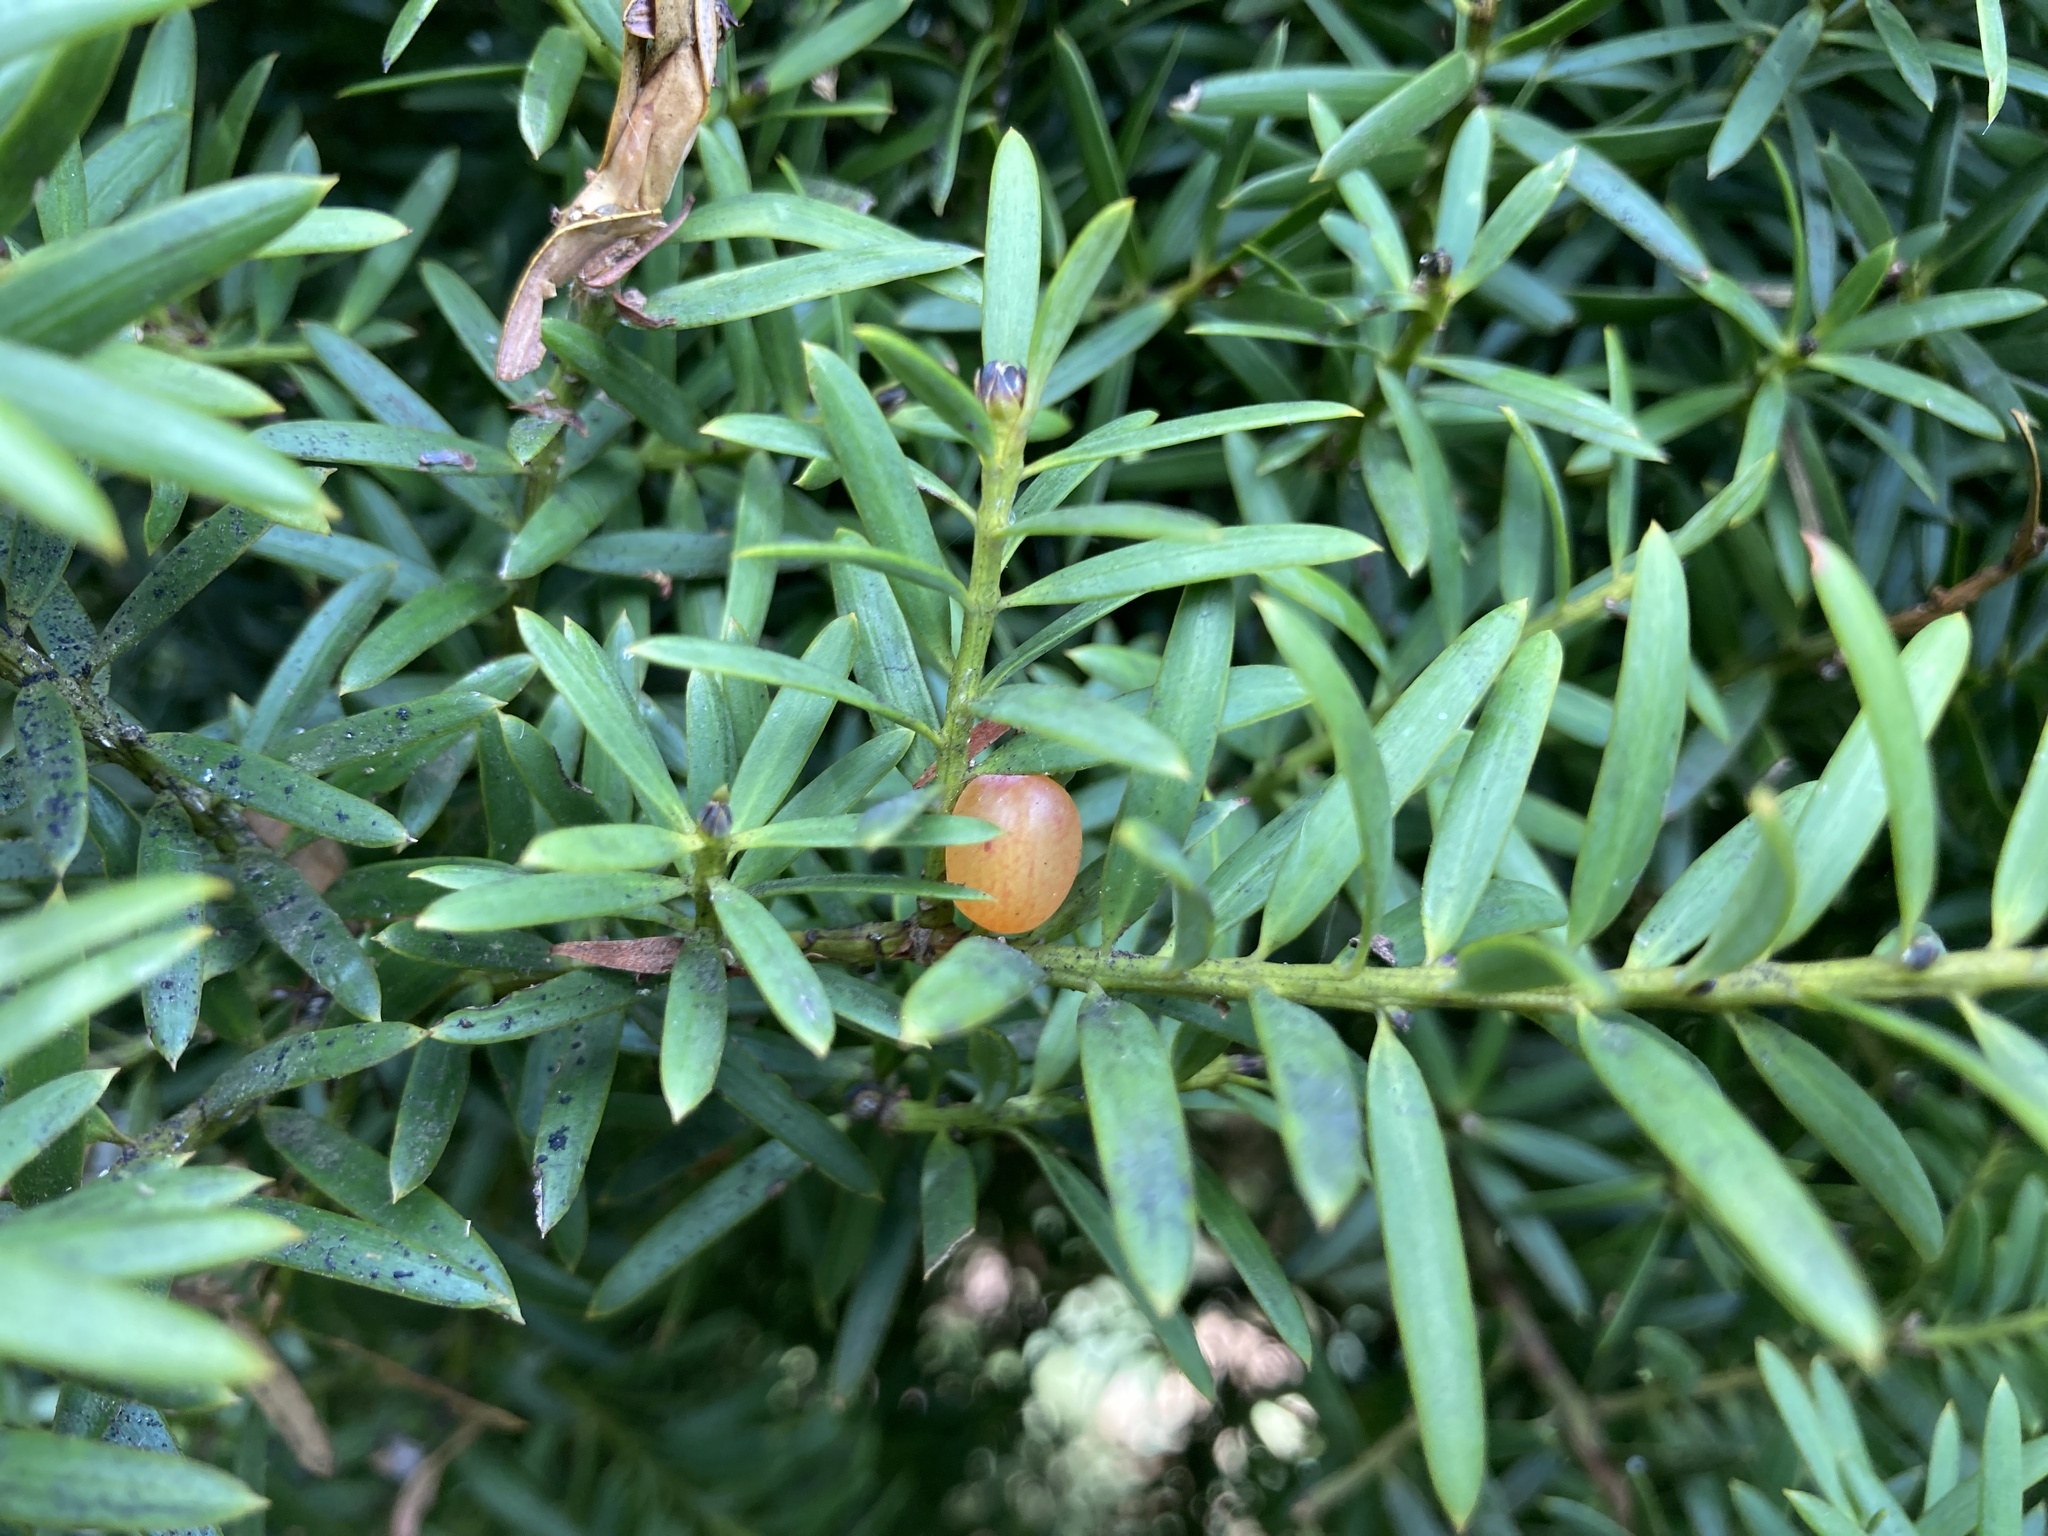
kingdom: Plantae
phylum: Tracheophyta
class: Pinopsida
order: Pinales
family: Podocarpaceae
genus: Podocarpus
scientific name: Podocarpus totara
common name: Totara
